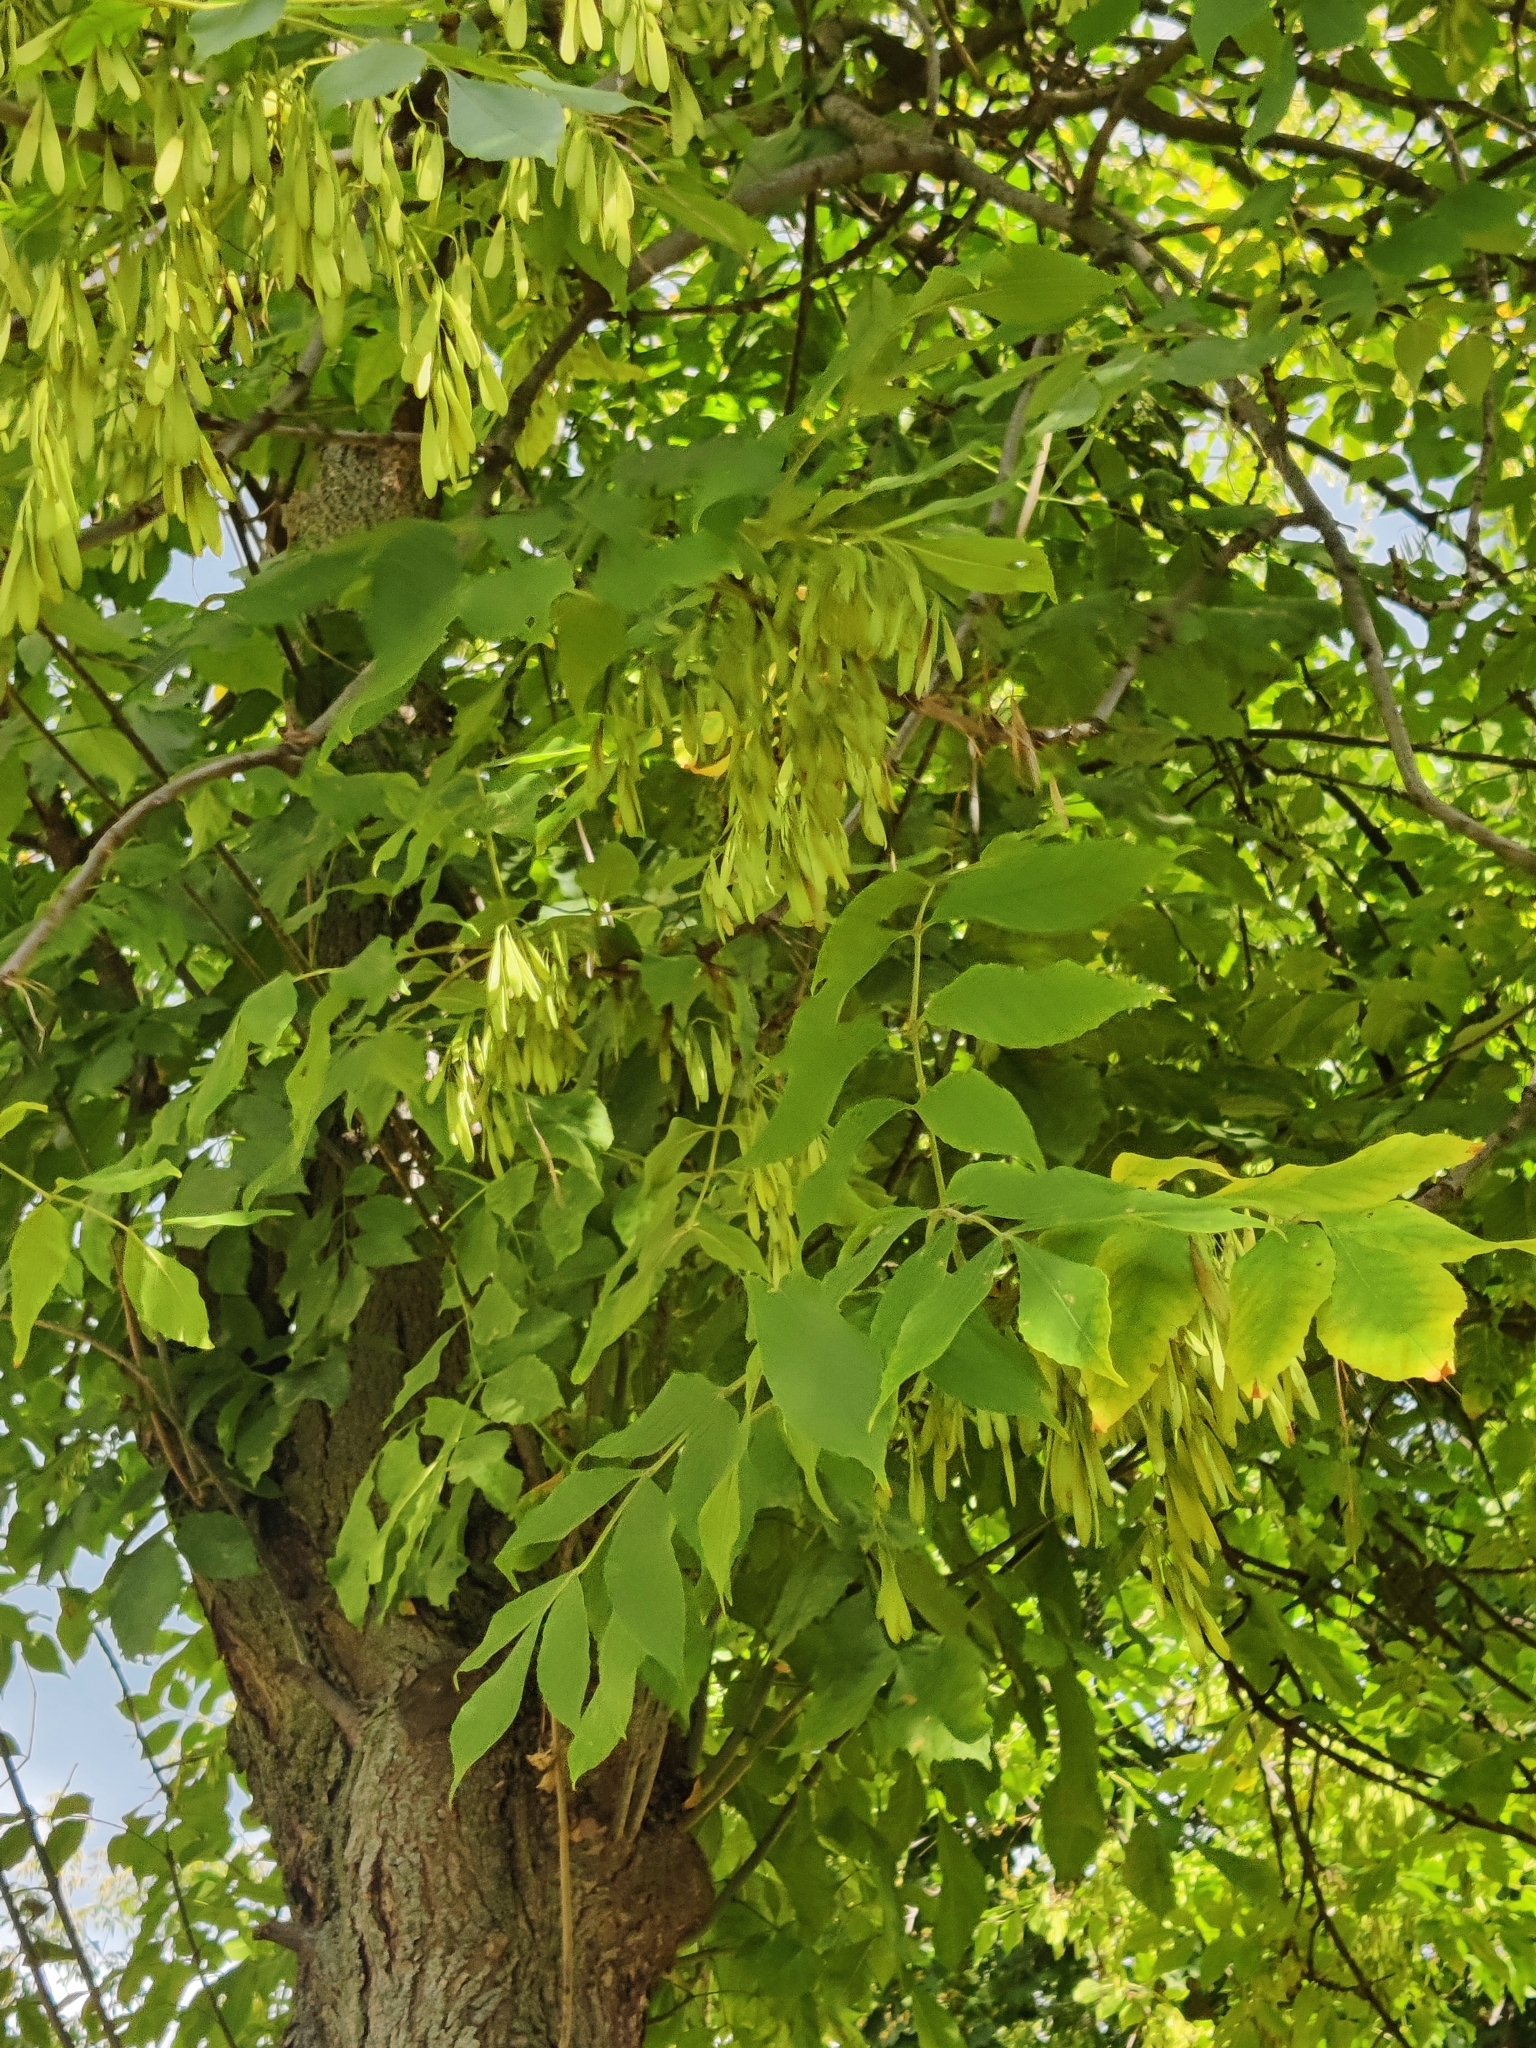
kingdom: Plantae
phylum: Tracheophyta
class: Magnoliopsida
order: Lamiales
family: Oleaceae
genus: Fraxinus
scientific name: Fraxinus pennsylvanica
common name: Green ash
